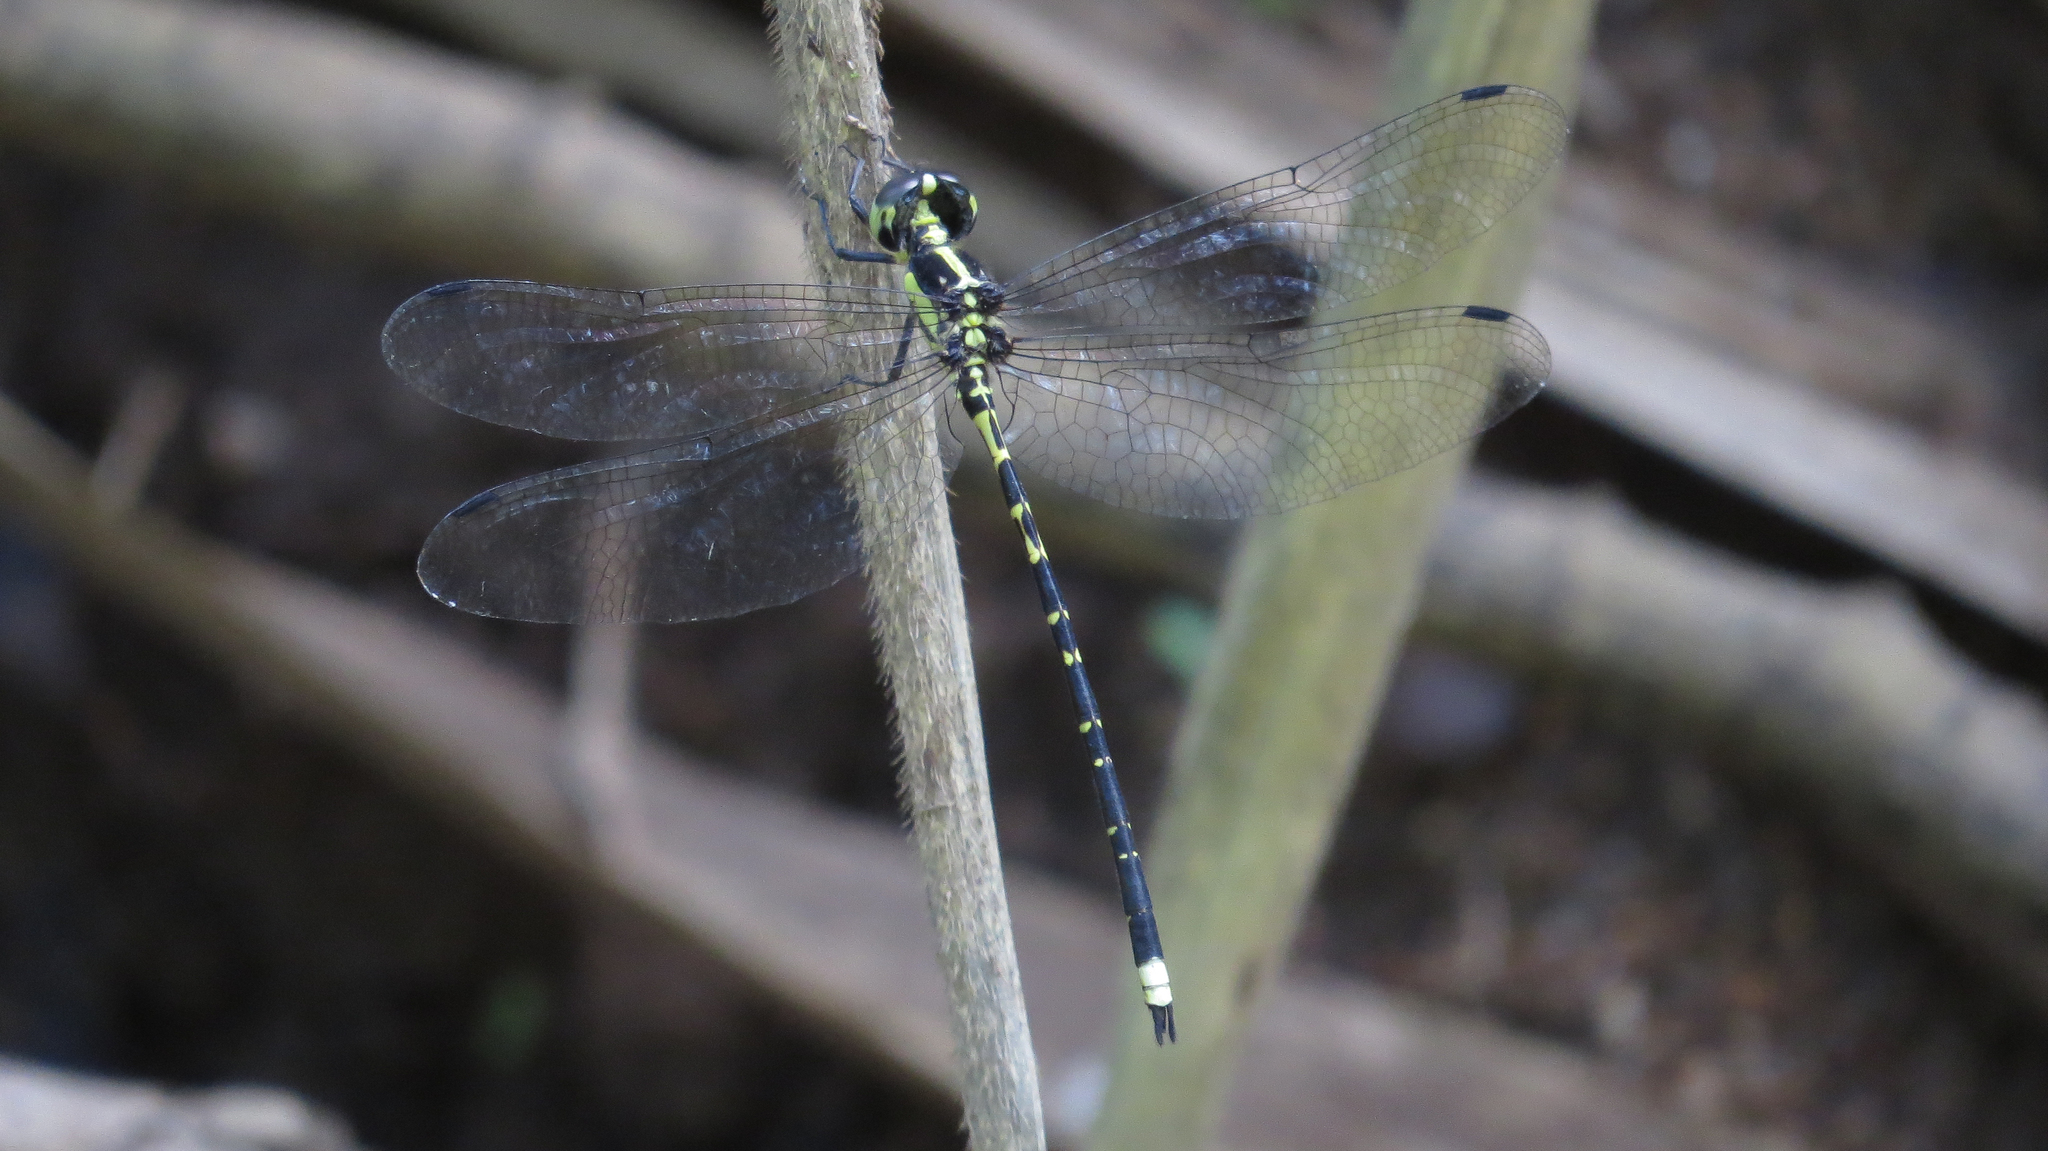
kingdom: Animalia
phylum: Arthropoda
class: Insecta
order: Odonata
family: Synthemistidae
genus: Choristhemis
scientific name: Choristhemis flavoterminata
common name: Yellow-tipped tigertail
